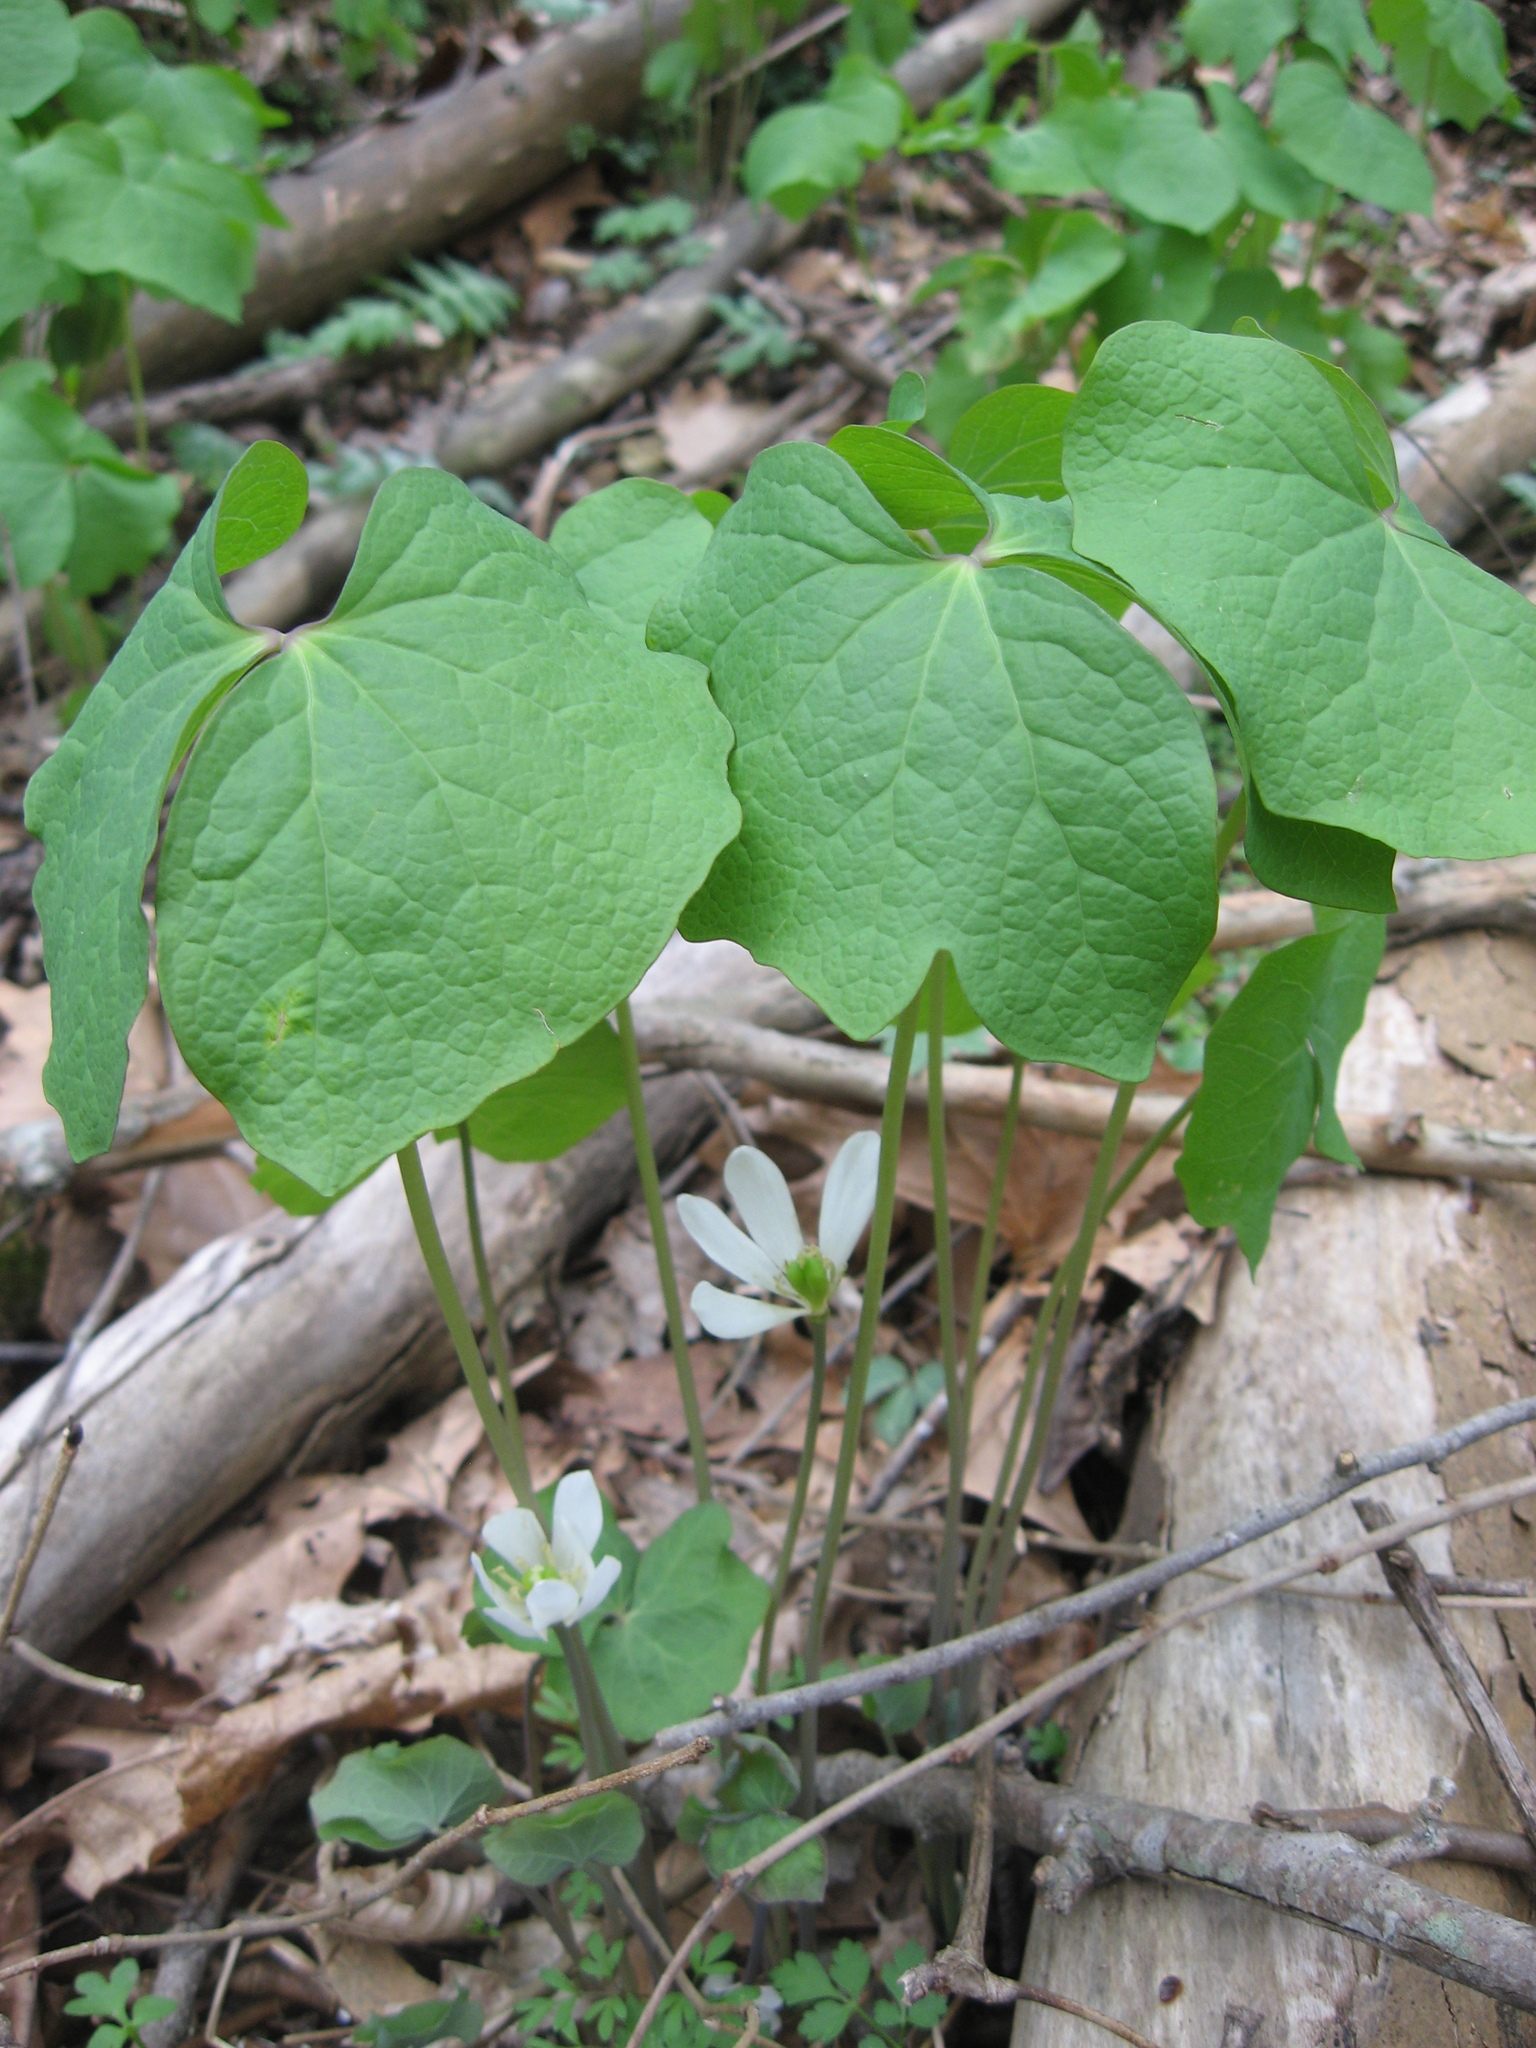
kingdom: Plantae
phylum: Tracheophyta
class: Magnoliopsida
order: Ranunculales
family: Berberidaceae
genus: Jeffersonia
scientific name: Jeffersonia diphylla
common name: Rheumatism-root
